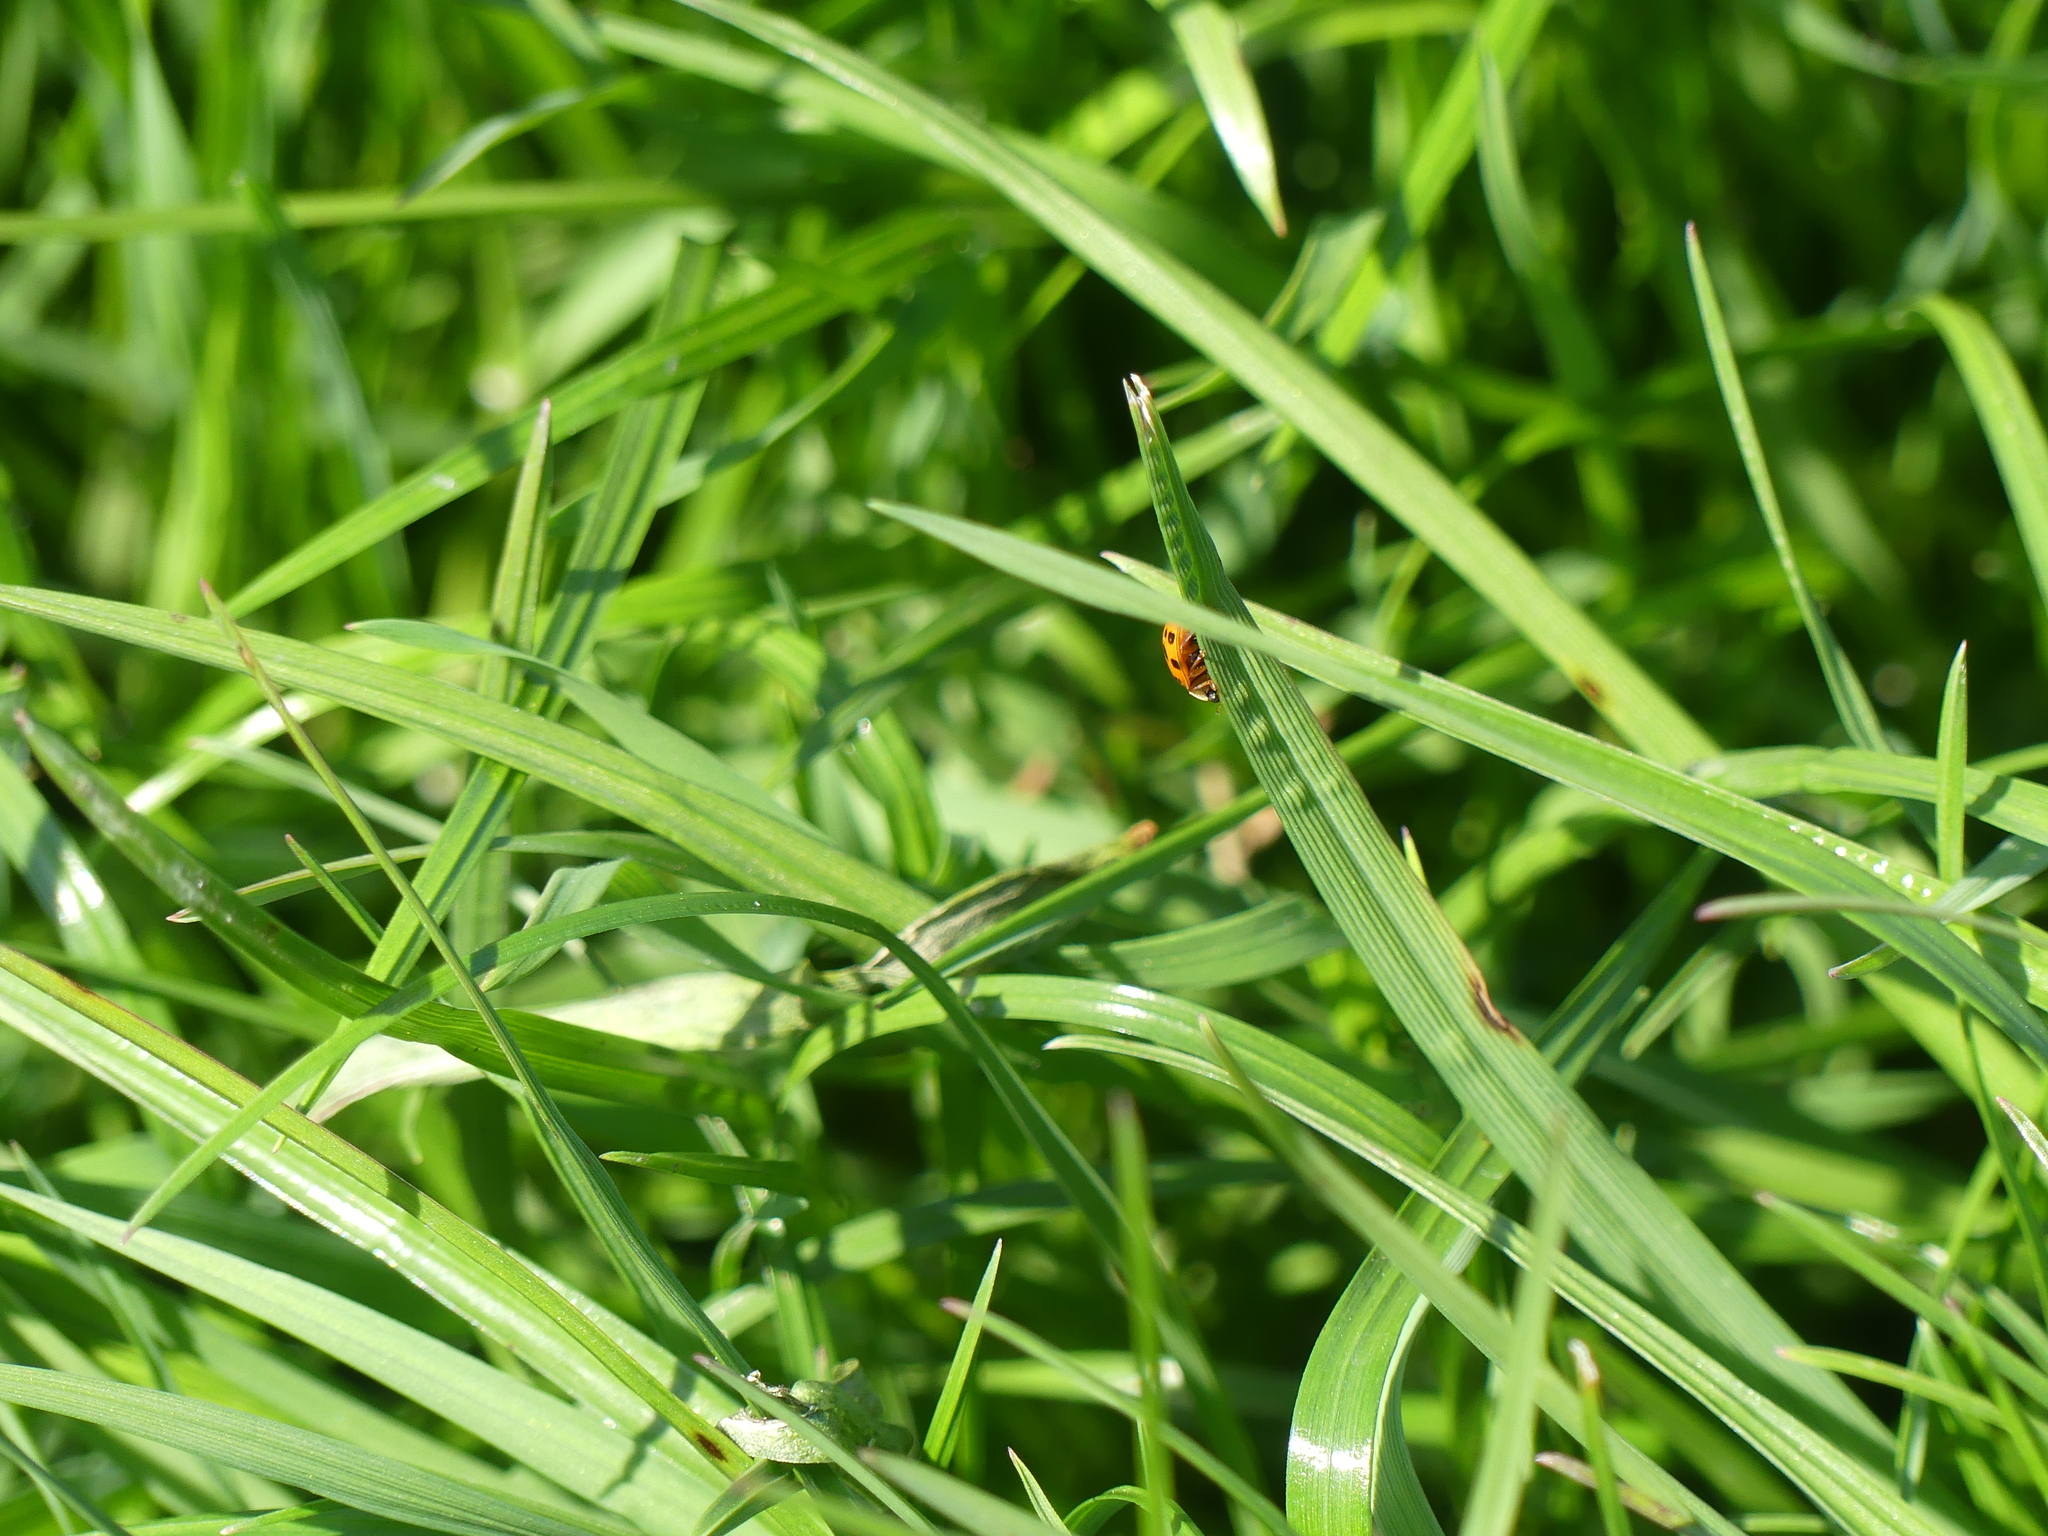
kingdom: Animalia
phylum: Arthropoda
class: Insecta
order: Coleoptera
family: Coccinellidae
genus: Harmonia
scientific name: Harmonia axyridis
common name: Harlequin ladybird
